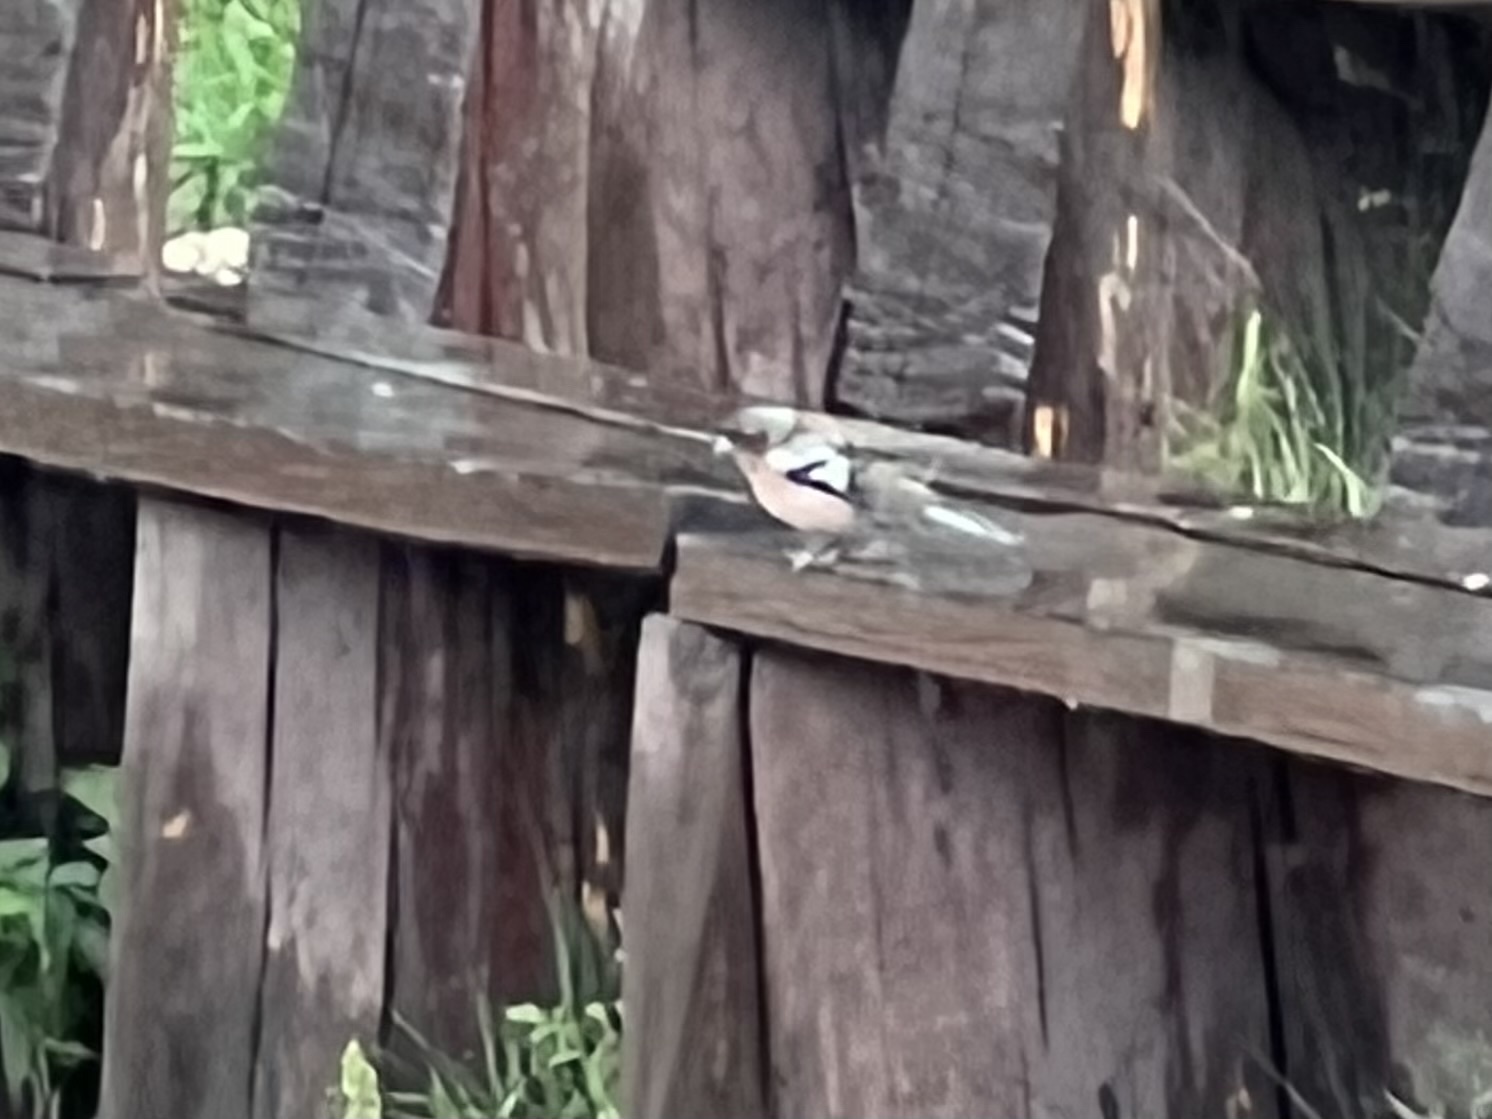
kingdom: Animalia
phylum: Chordata
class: Aves
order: Passeriformes
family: Fringillidae
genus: Fringilla
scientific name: Fringilla coelebs
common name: Common chaffinch
